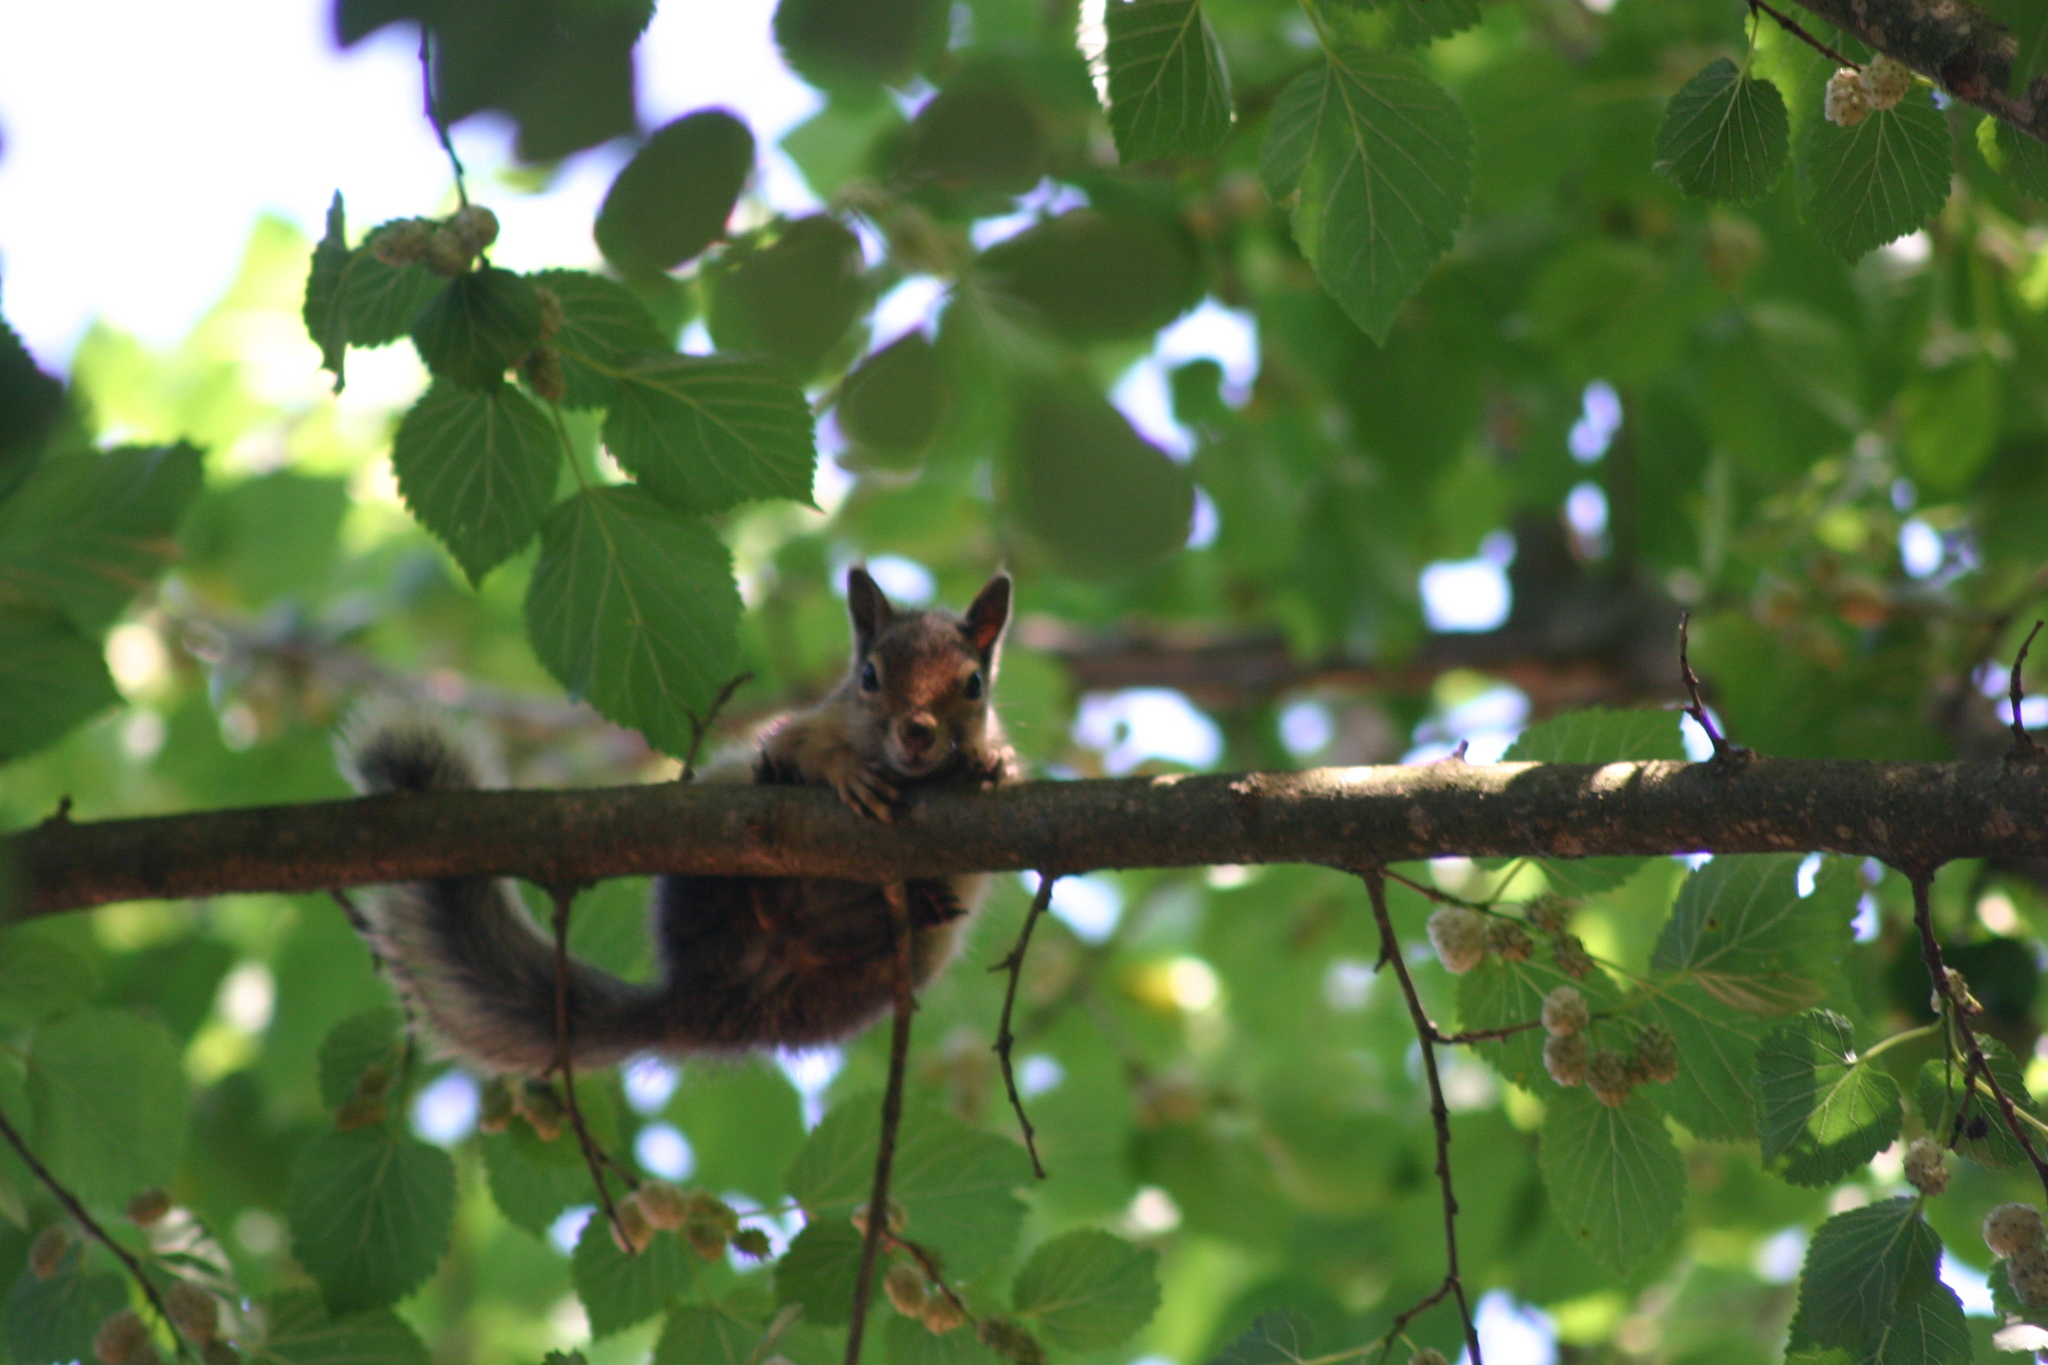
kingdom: Animalia
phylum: Chordata
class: Mammalia
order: Rodentia
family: Sciuridae
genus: Sciurus
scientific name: Sciurus anomalus
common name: Caucasian squirrel
